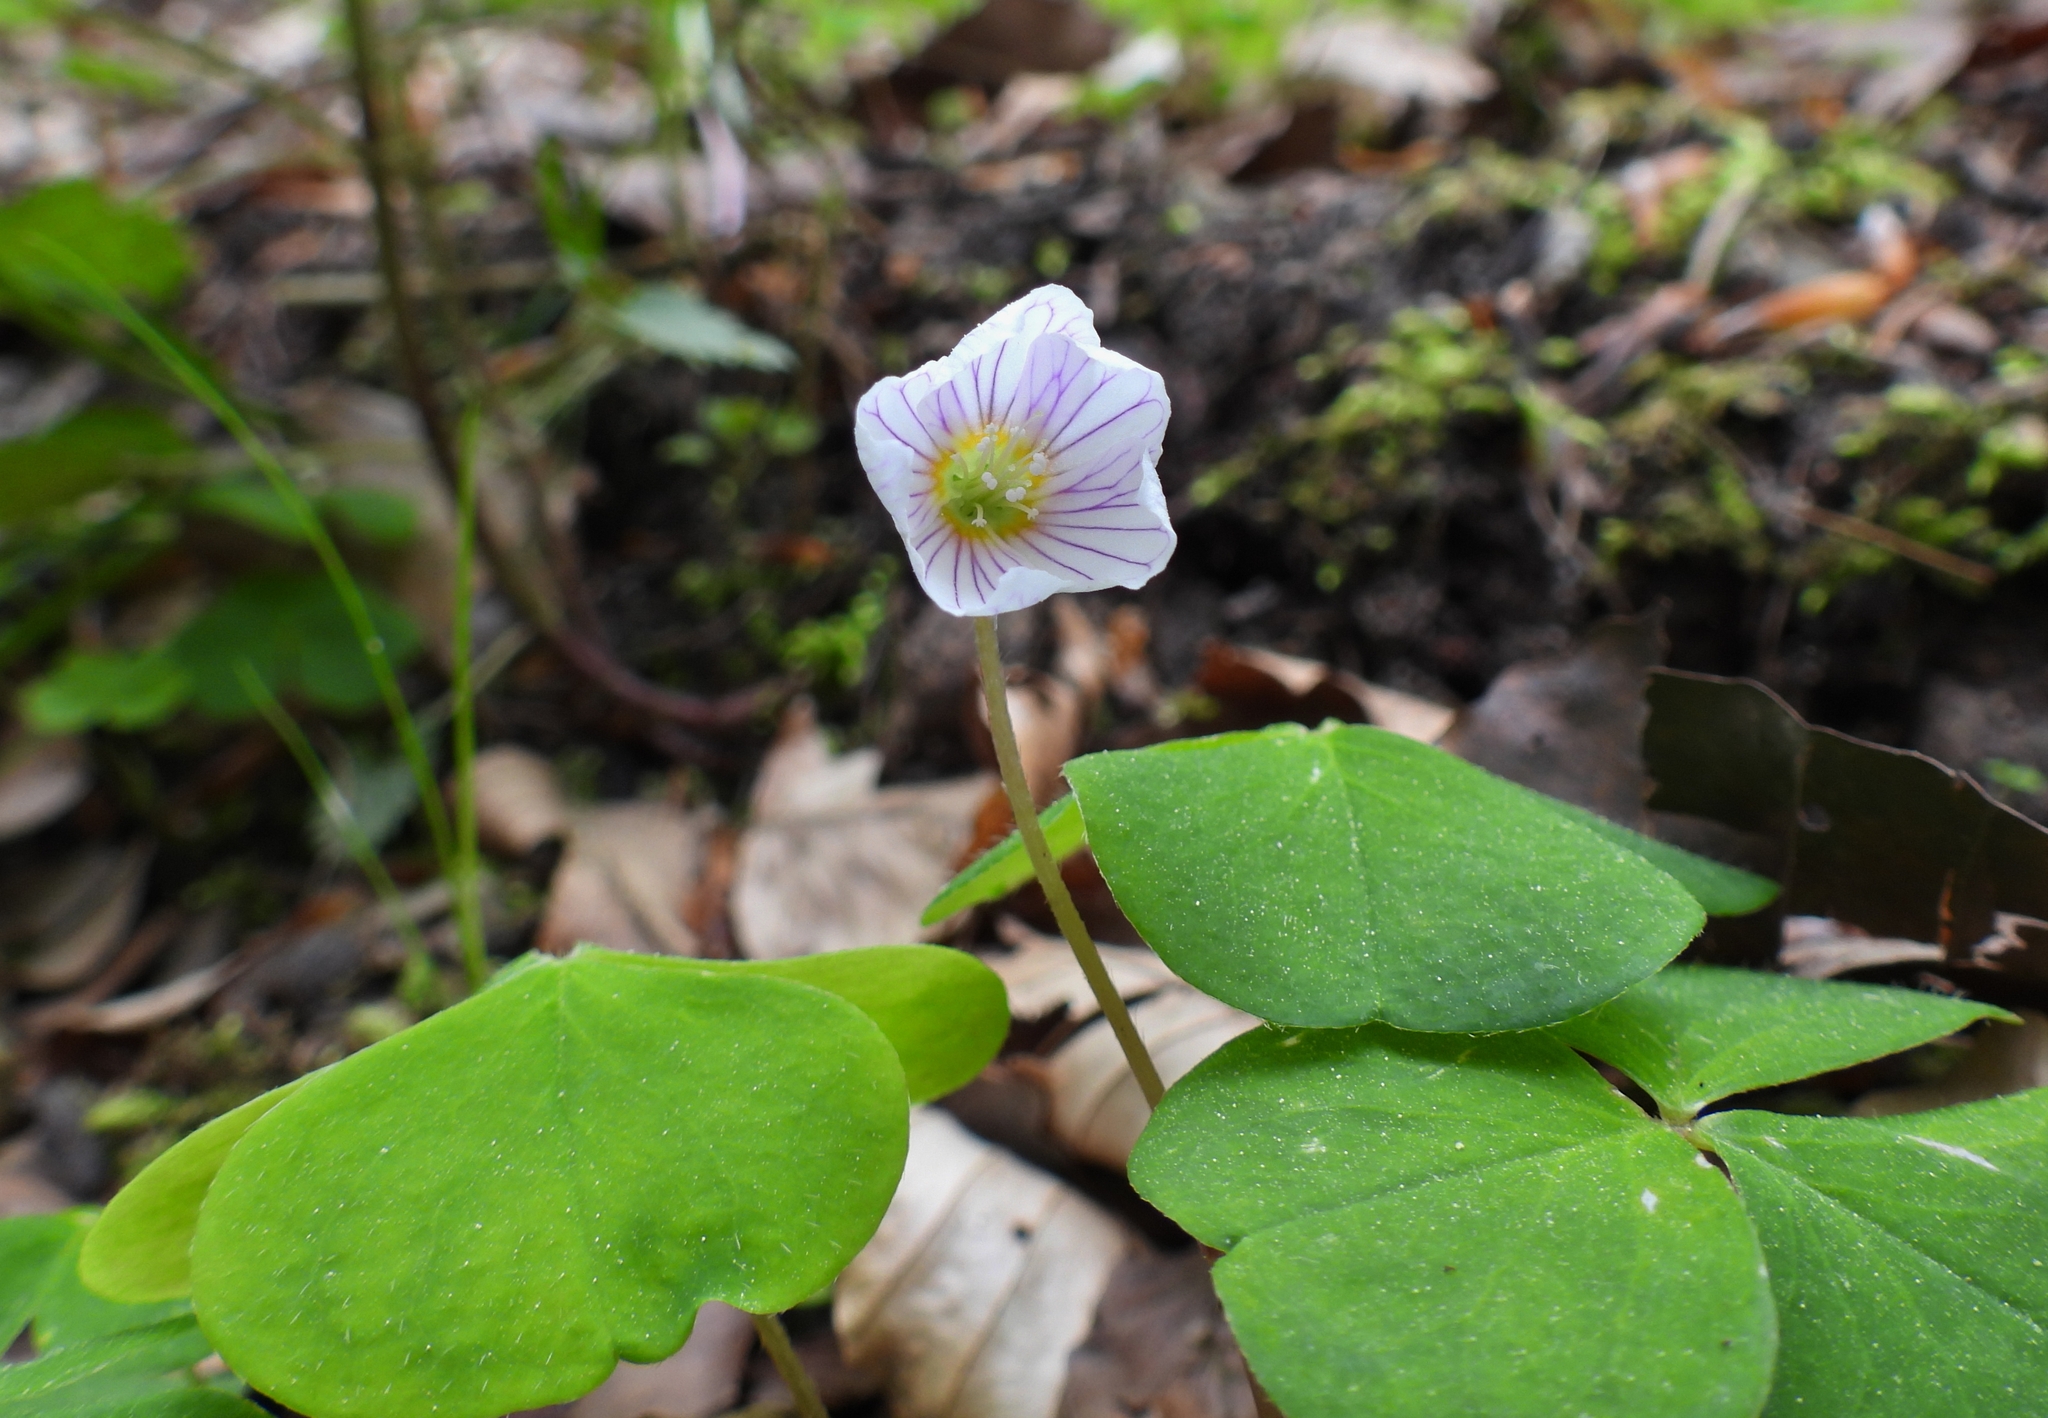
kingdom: Plantae
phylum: Tracheophyta
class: Magnoliopsida
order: Oxalidales
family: Oxalidaceae
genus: Oxalis
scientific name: Oxalis acetosella
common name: Wood-sorrel
